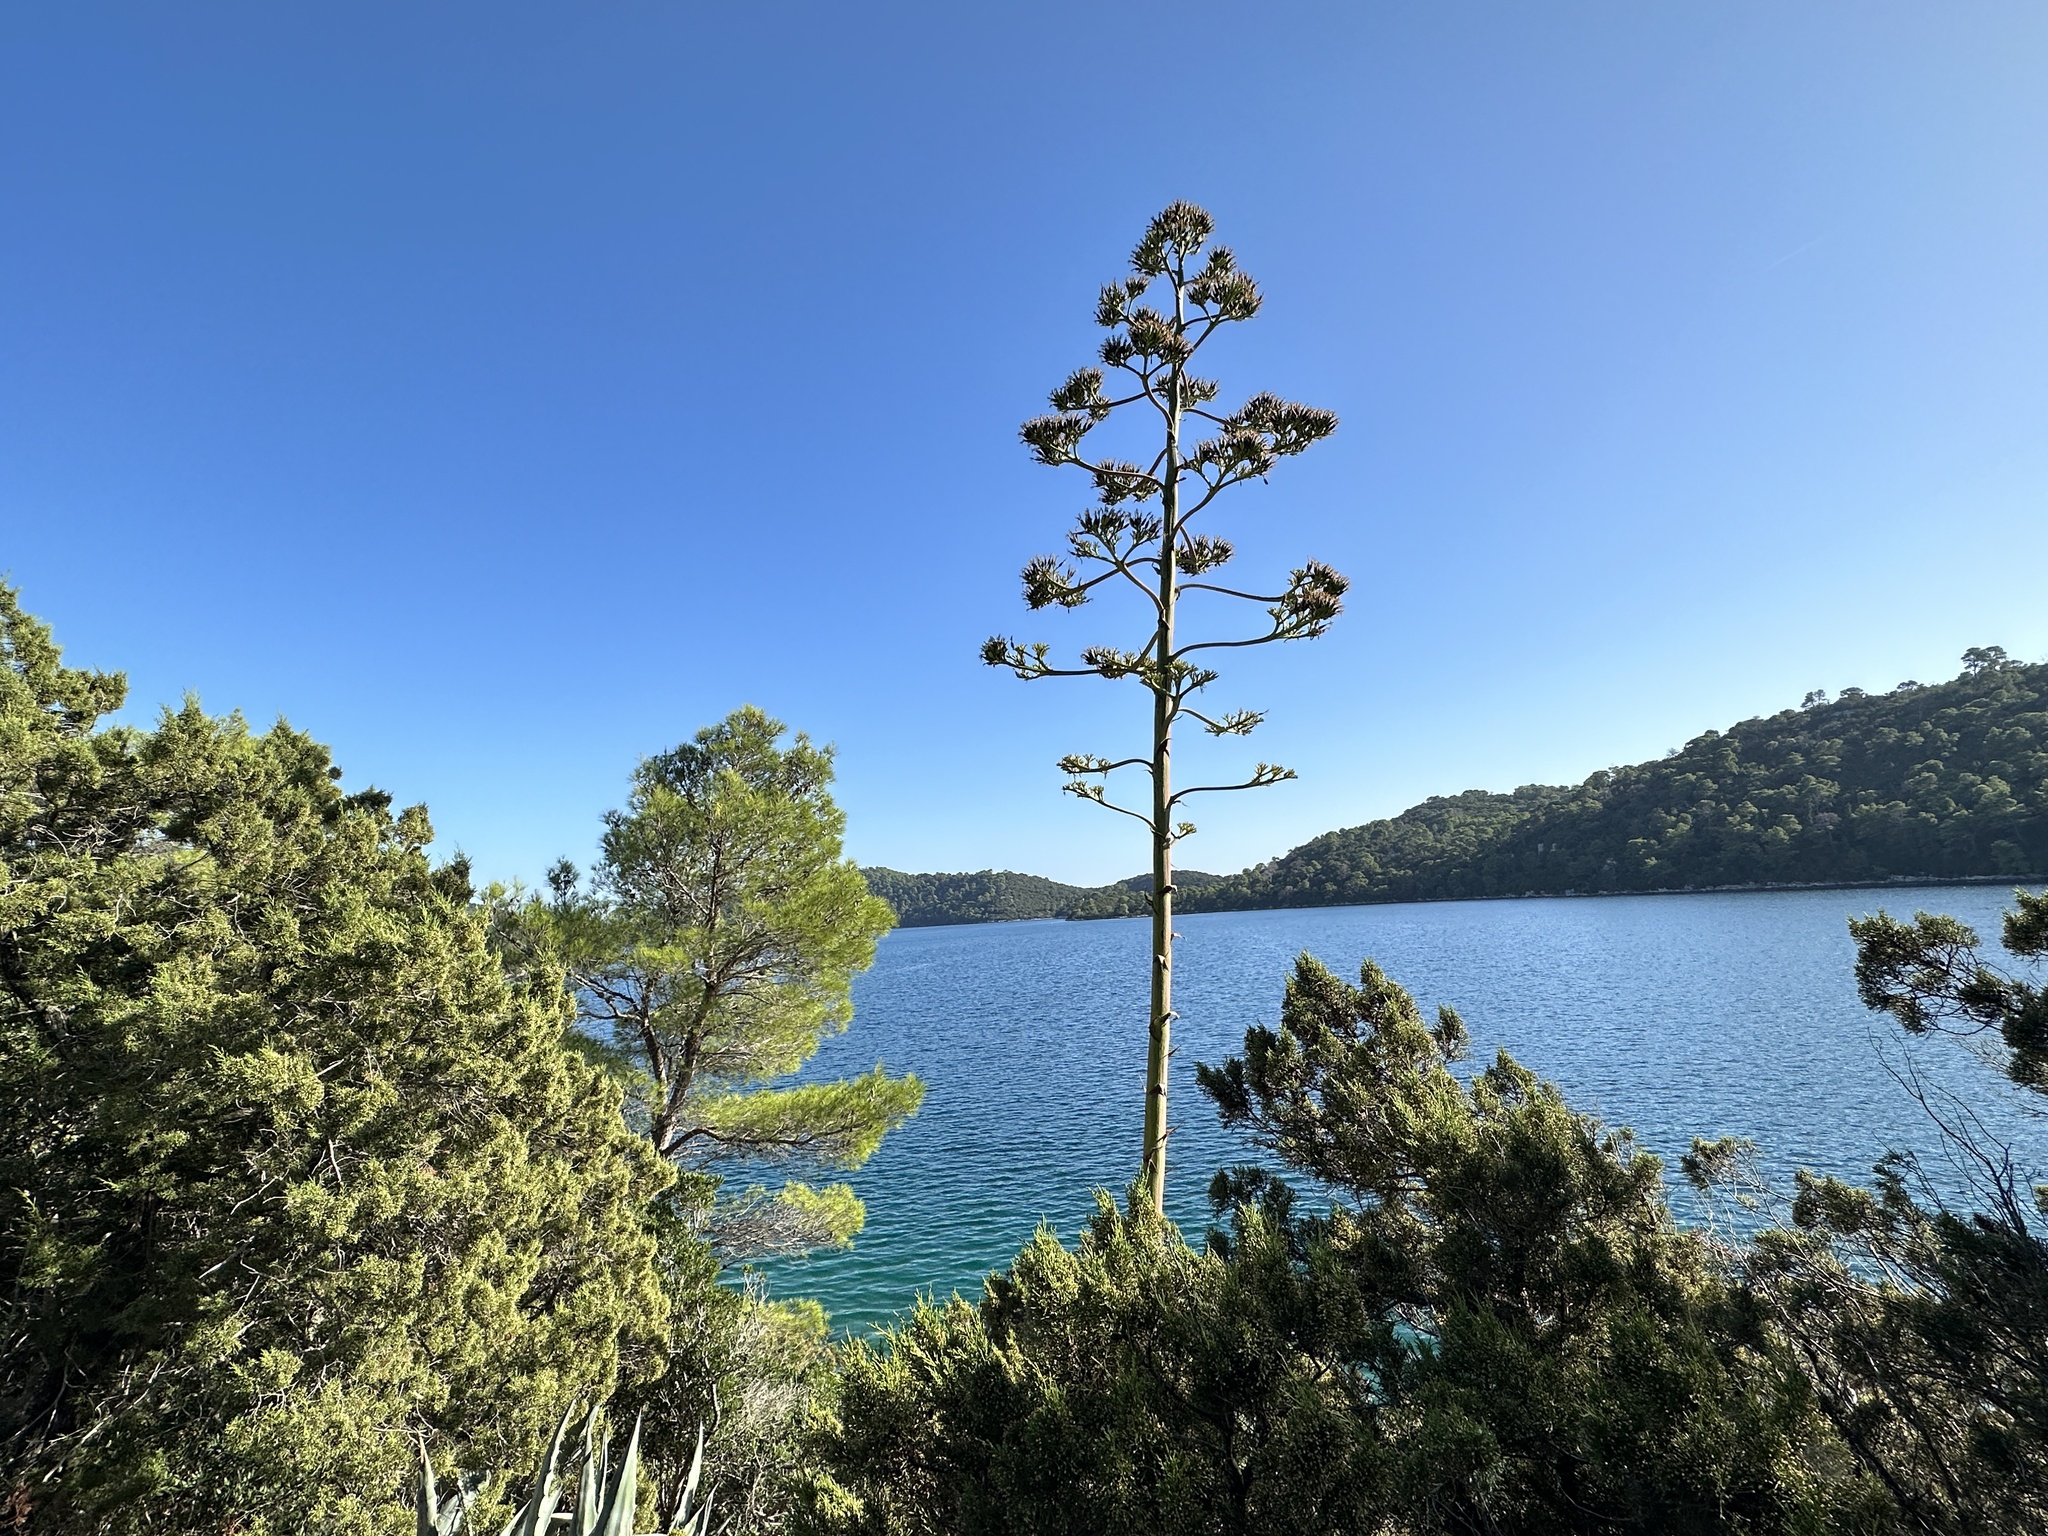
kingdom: Plantae
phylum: Tracheophyta
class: Liliopsida
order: Asparagales
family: Asparagaceae
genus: Agave
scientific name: Agave americana
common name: Centuryplant
